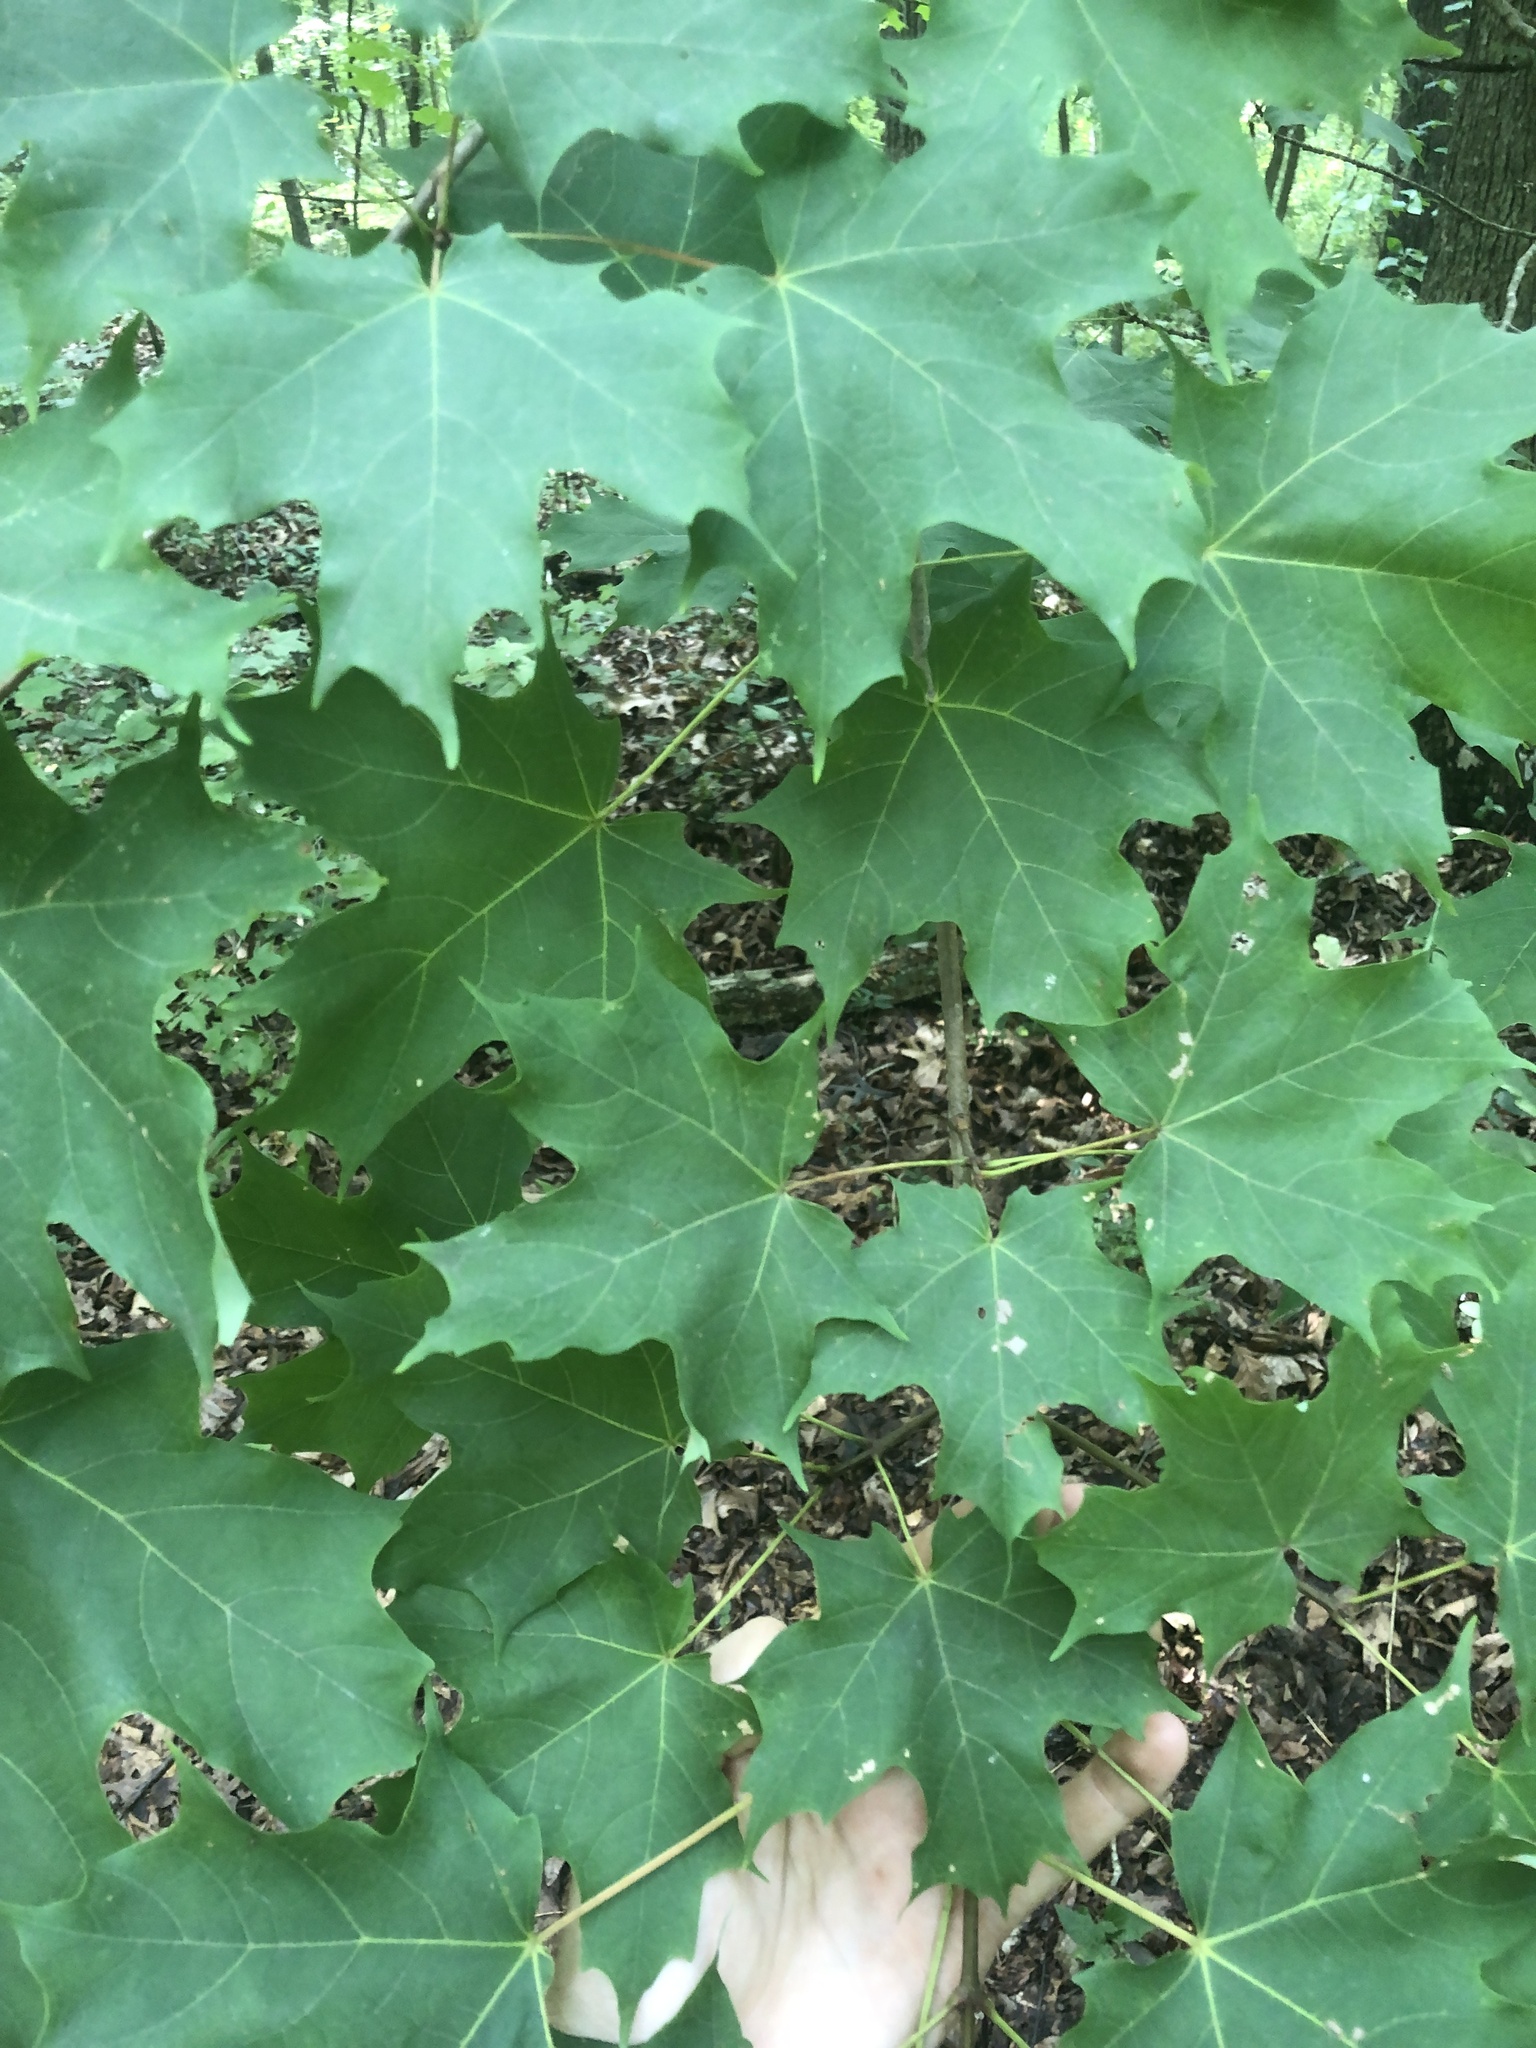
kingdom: Plantae
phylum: Tracheophyta
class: Magnoliopsida
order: Sapindales
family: Sapindaceae
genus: Acer
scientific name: Acer saccharum
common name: Sugar maple
